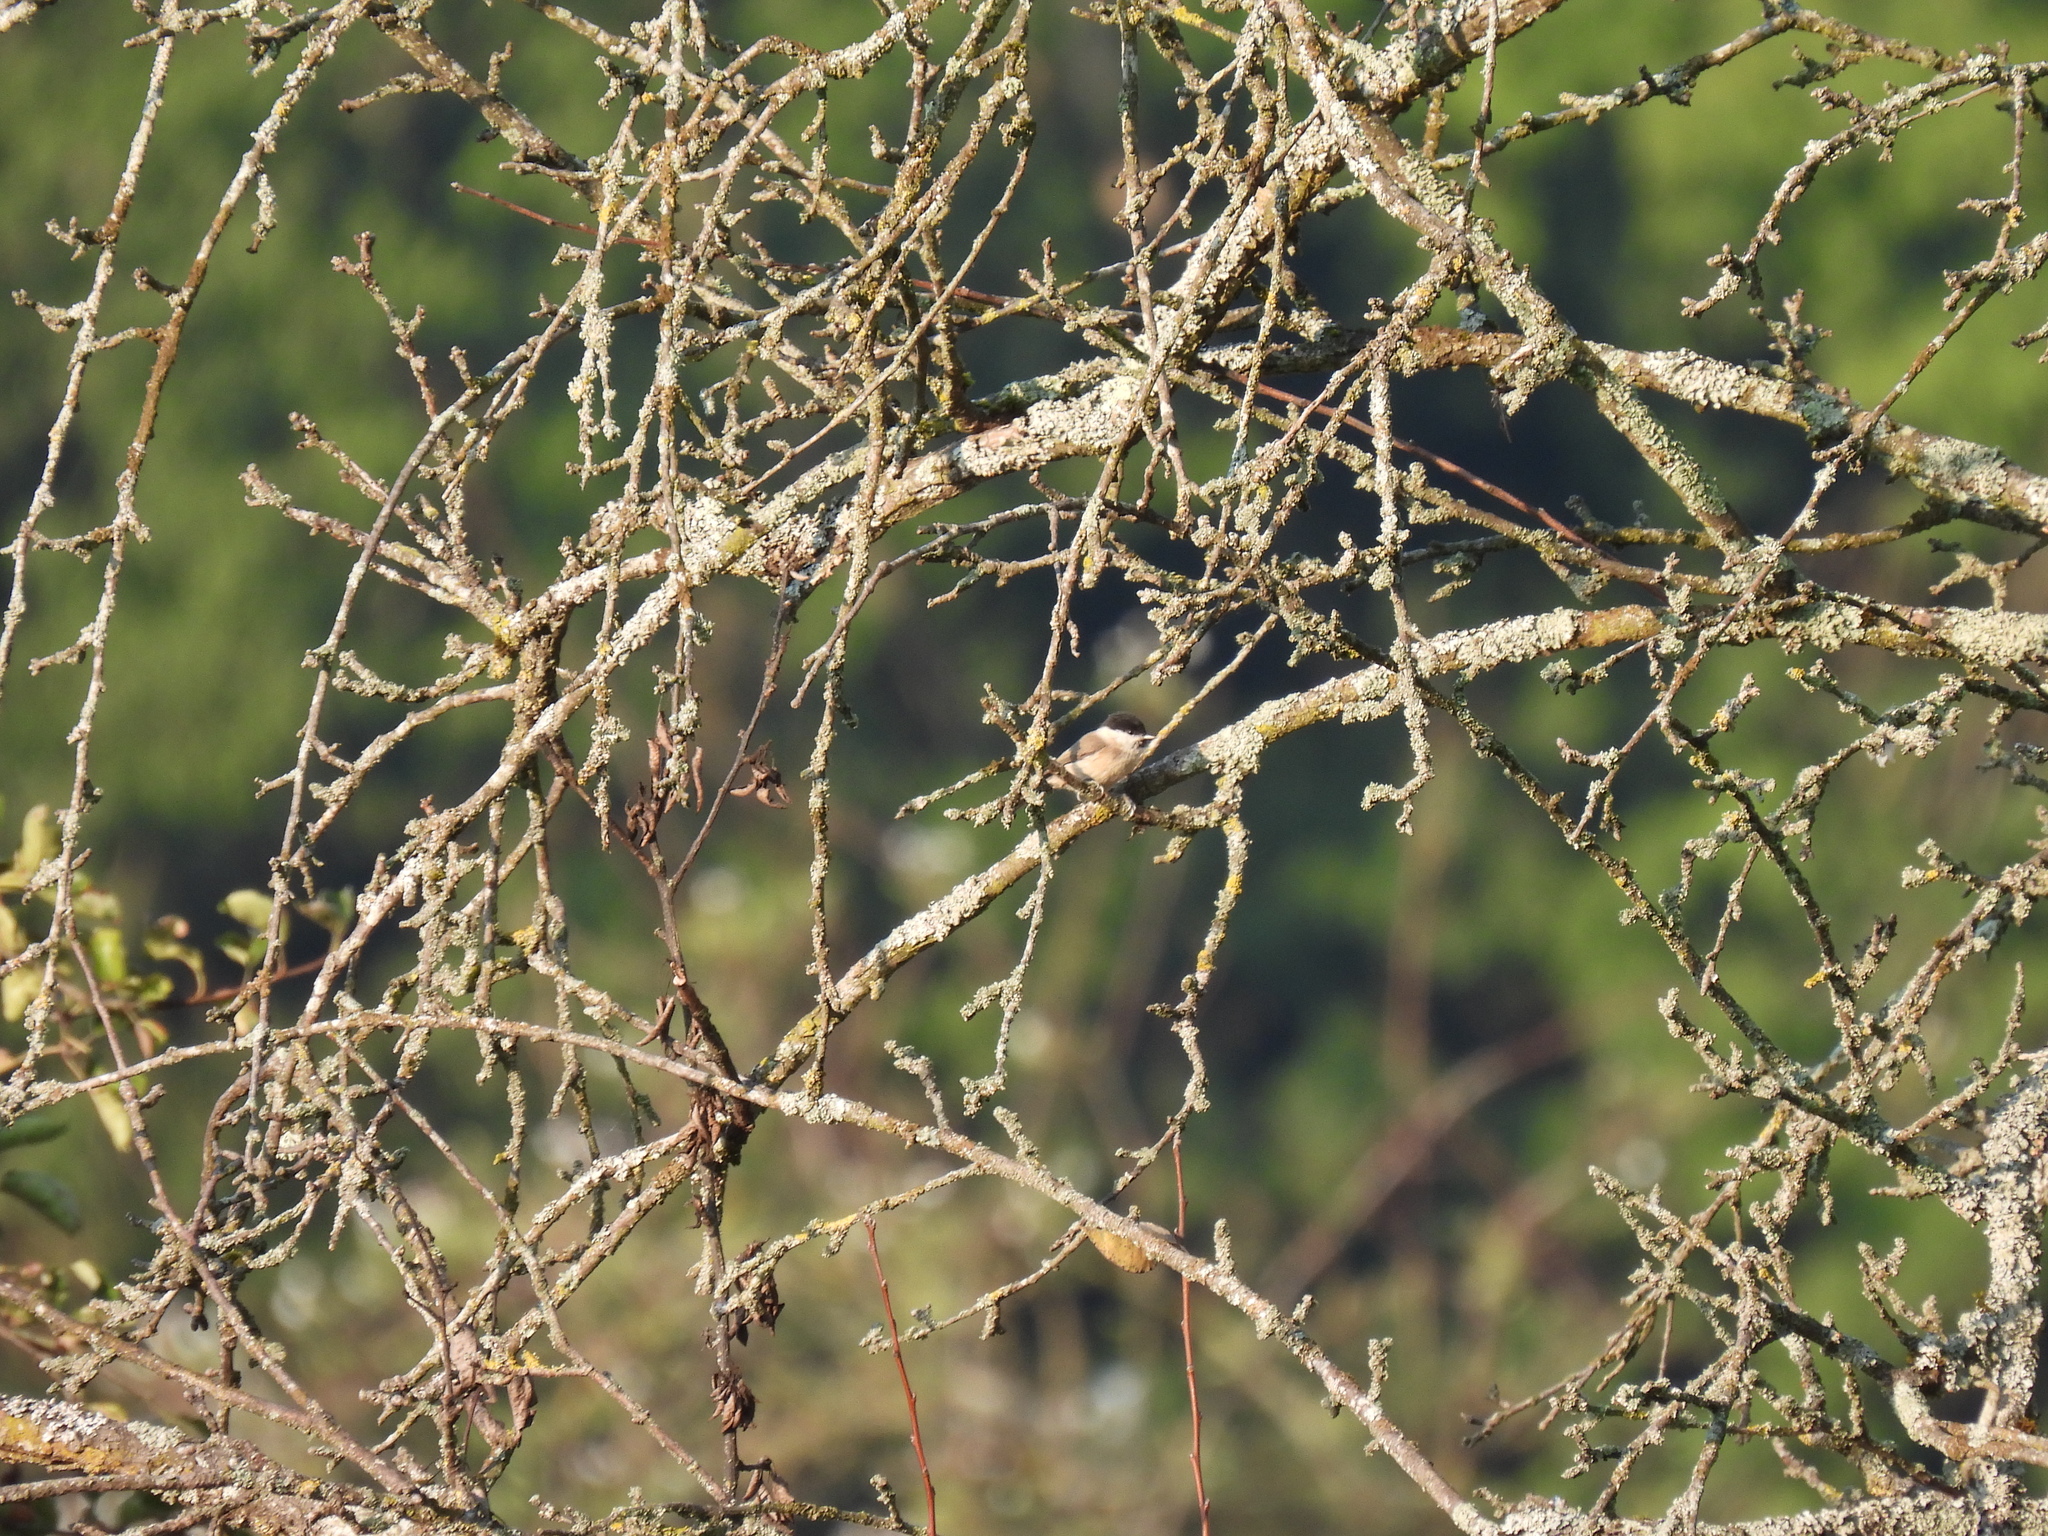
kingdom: Animalia
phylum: Chordata
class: Aves
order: Passeriformes
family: Paridae
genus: Poecile
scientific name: Poecile palustris
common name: Marsh tit
